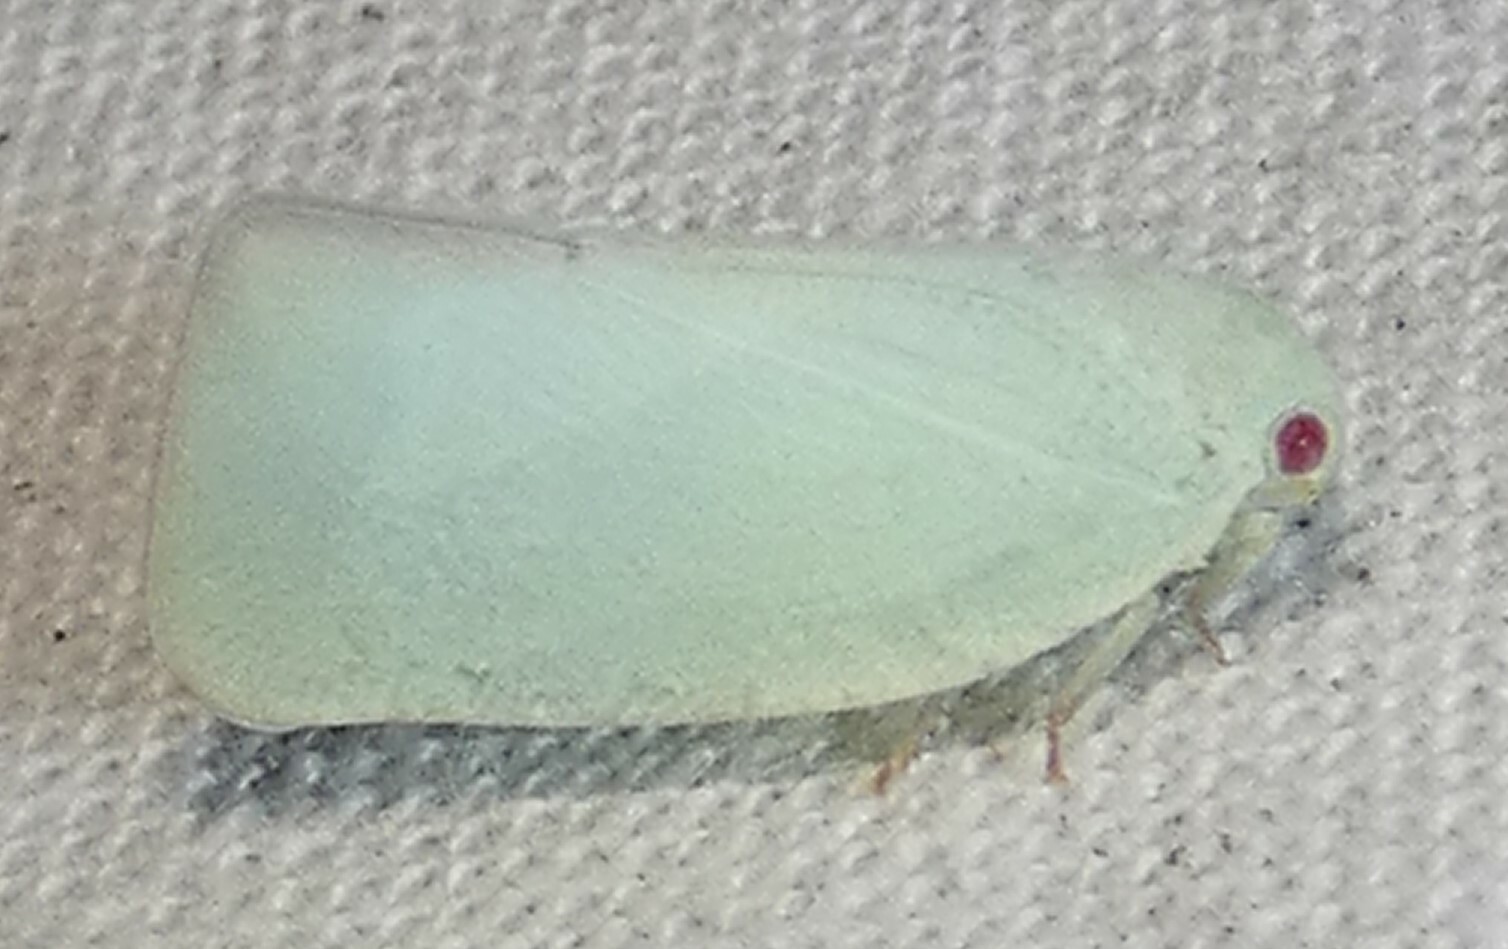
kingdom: Animalia
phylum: Arthropoda
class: Insecta
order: Hemiptera
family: Flatidae
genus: Flatormenis
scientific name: Flatormenis proxima
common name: Northern flatid planthopper
